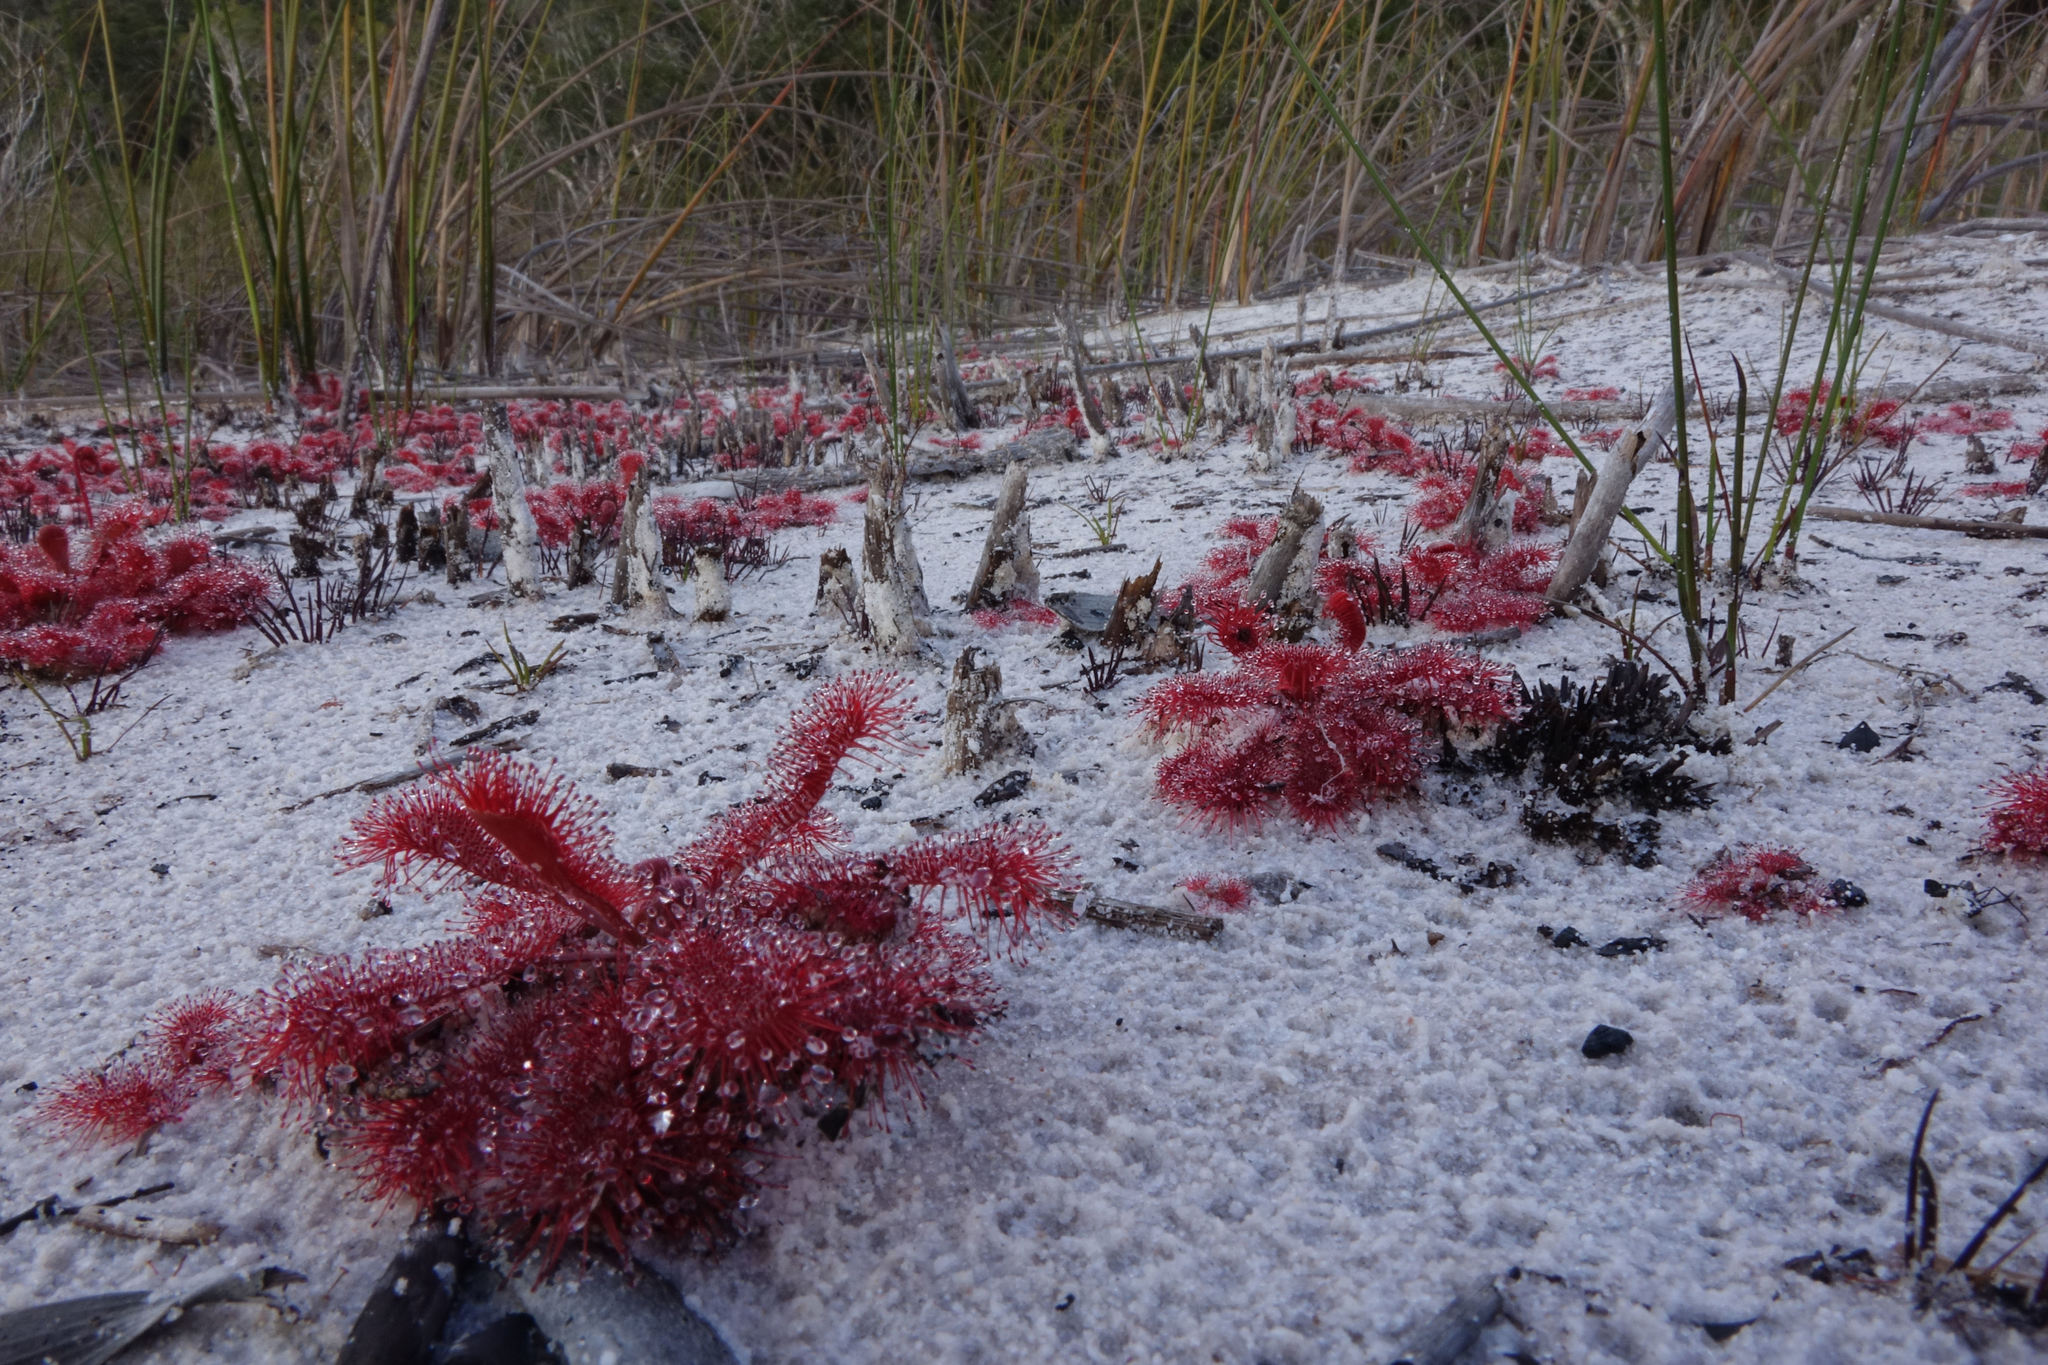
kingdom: Plantae
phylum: Tracheophyta
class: Magnoliopsida
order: Caryophyllales
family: Droseraceae
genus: Drosera
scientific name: Drosera spatulata
